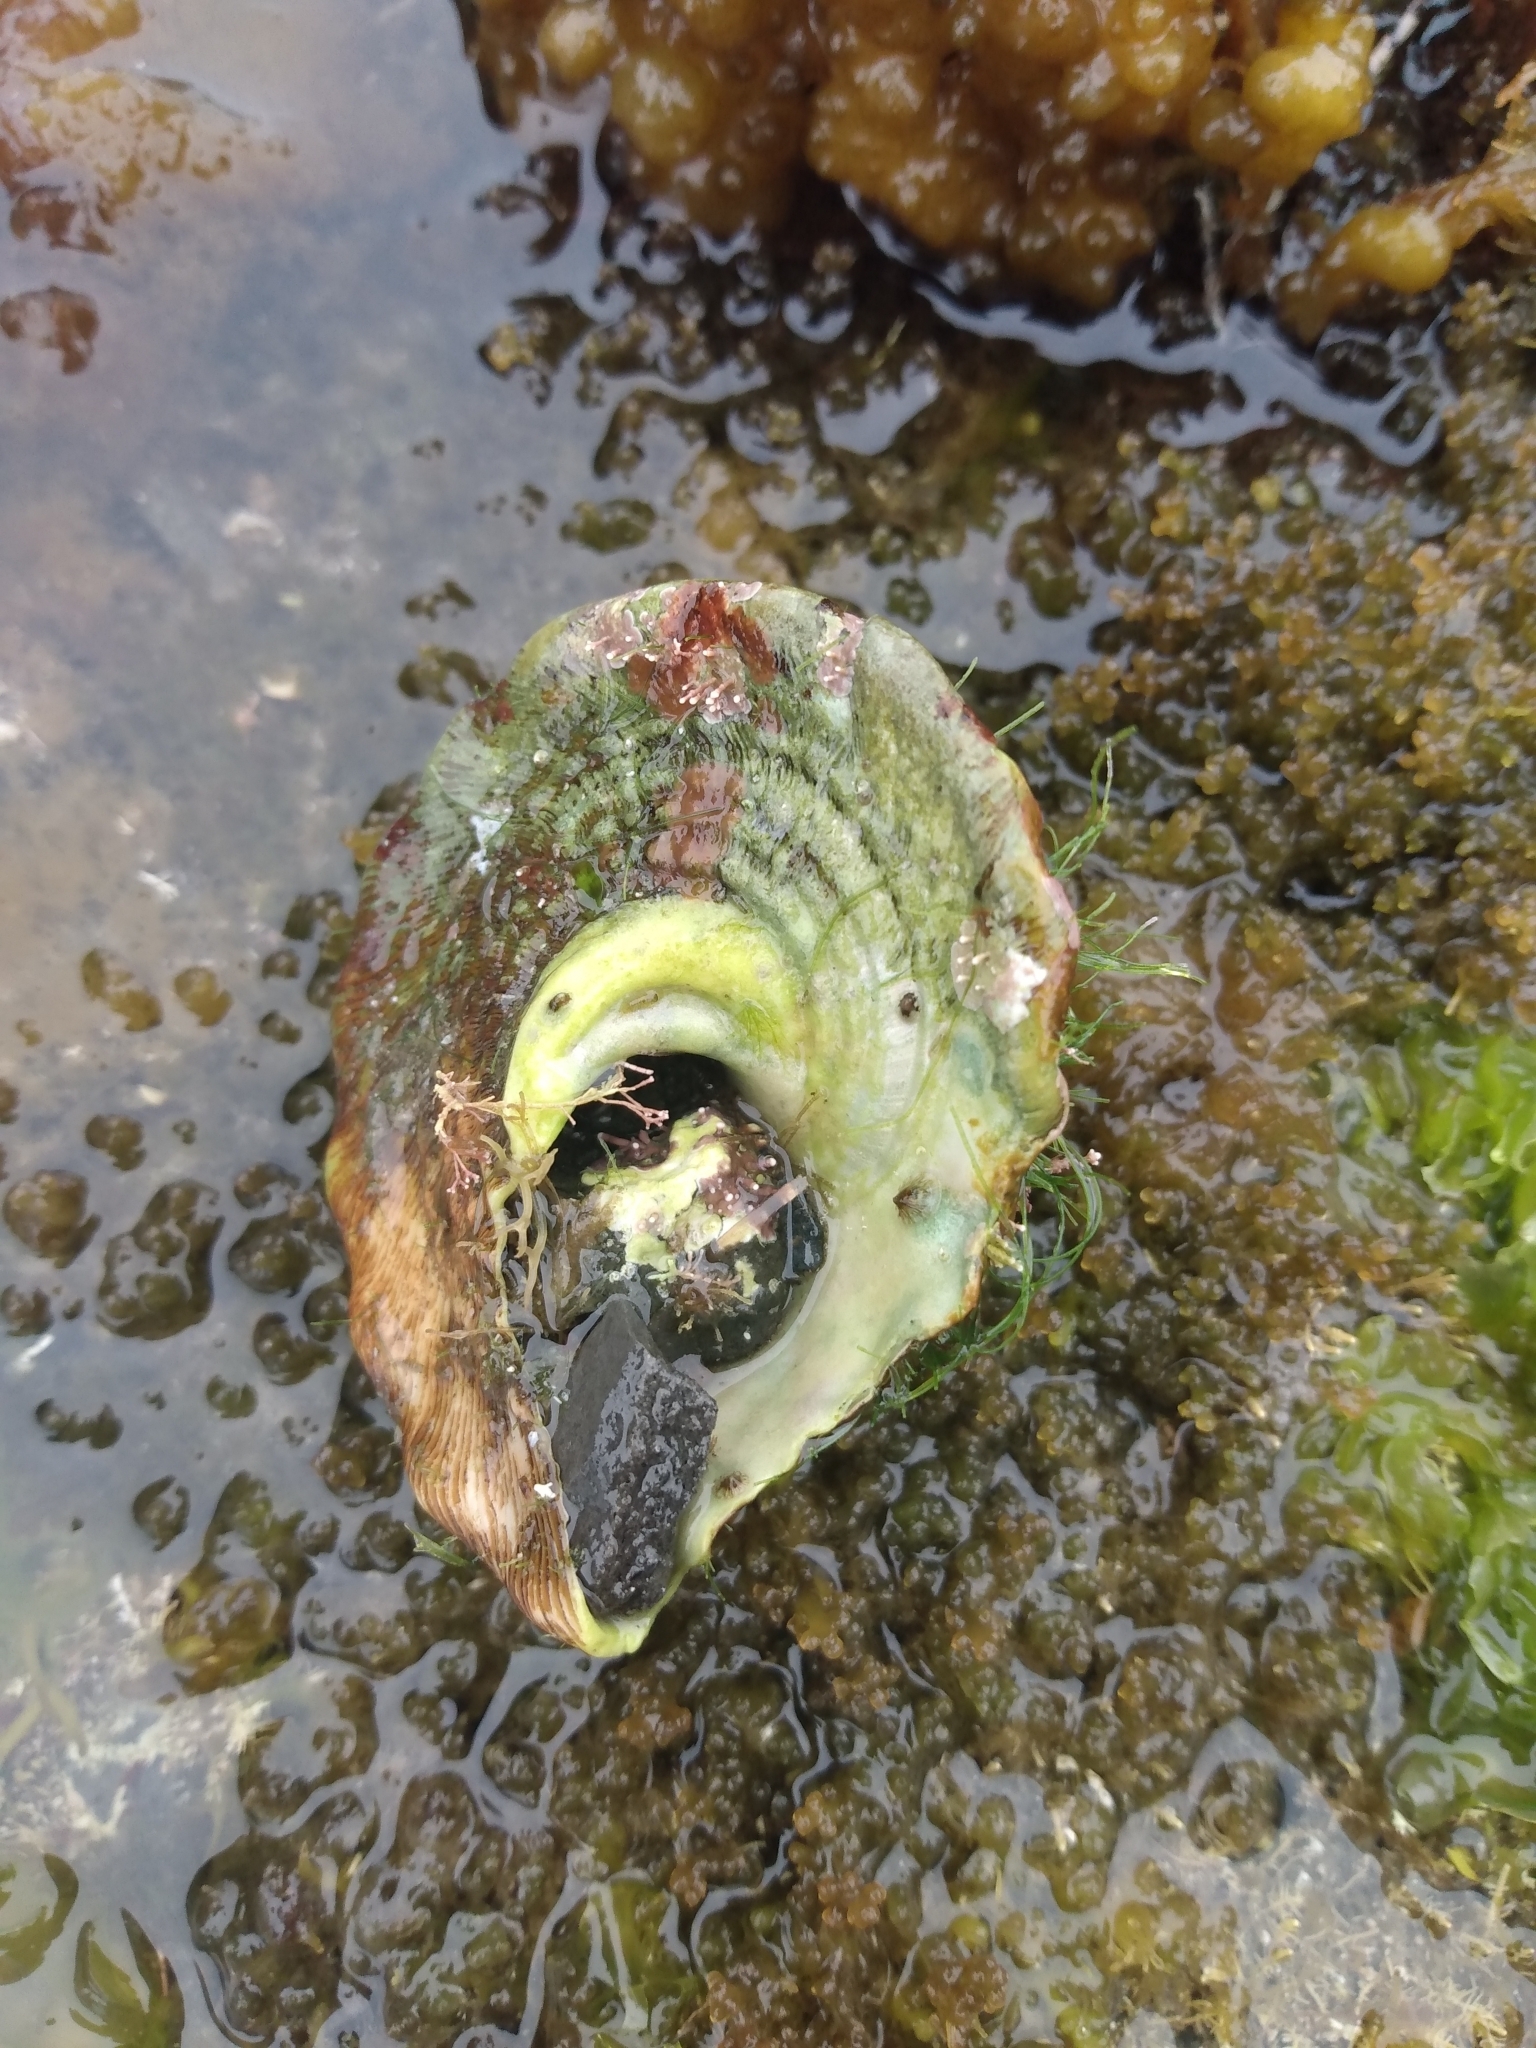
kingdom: Animalia
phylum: Mollusca
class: Gastropoda
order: Trochida
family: Turbinidae
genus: Megastraea
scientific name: Megastraea undosa
